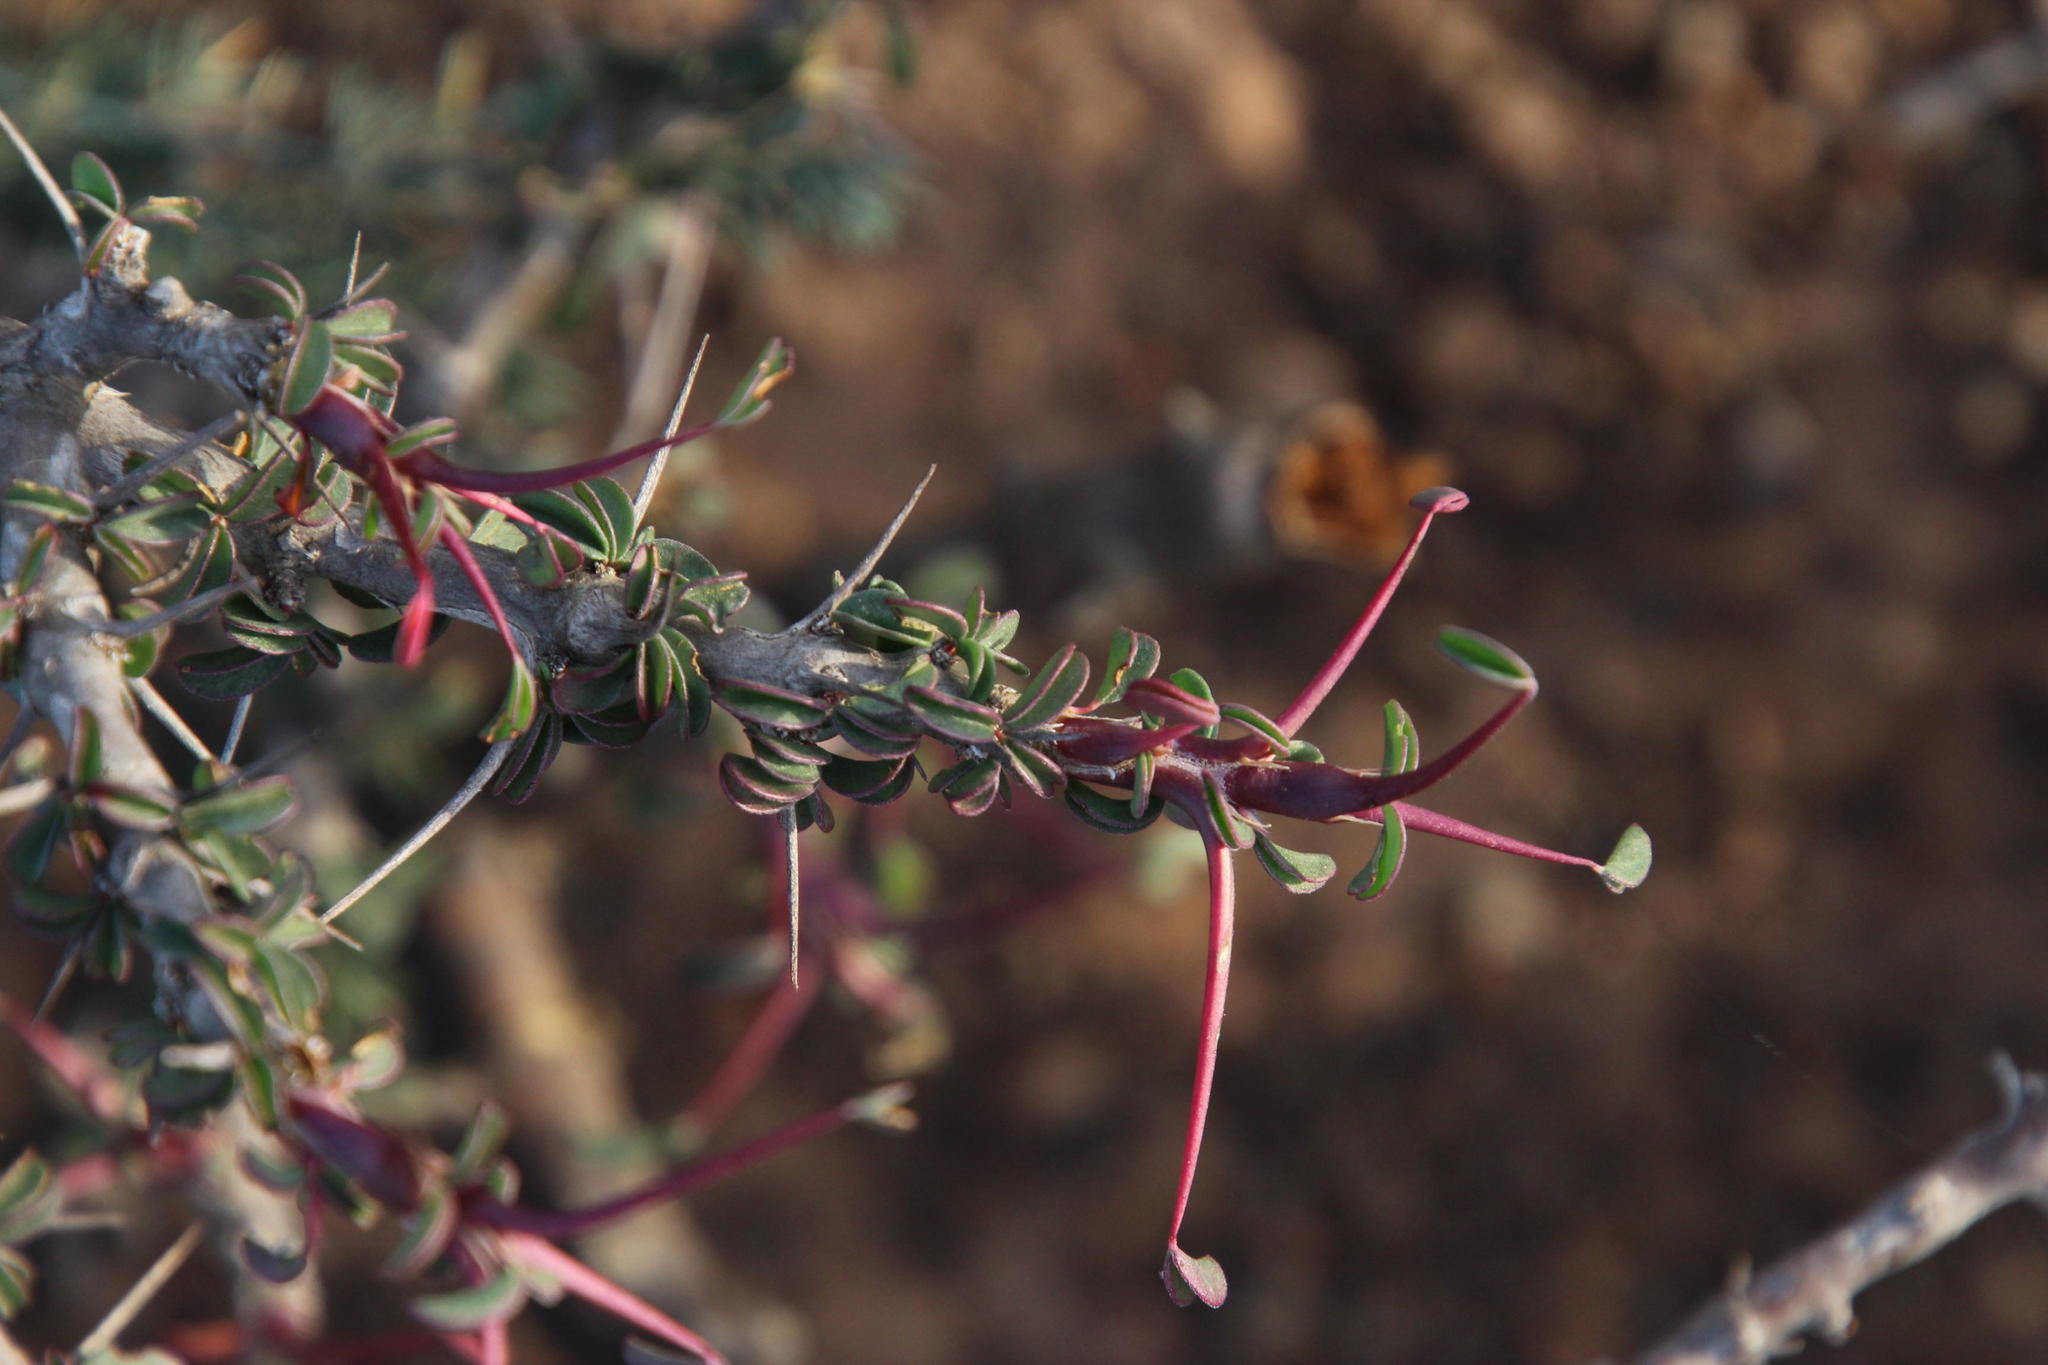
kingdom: Plantae
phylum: Tracheophyta
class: Magnoliopsida
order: Geraniales
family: Geraniaceae
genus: Monsonia
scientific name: Monsonia camdeboensis
